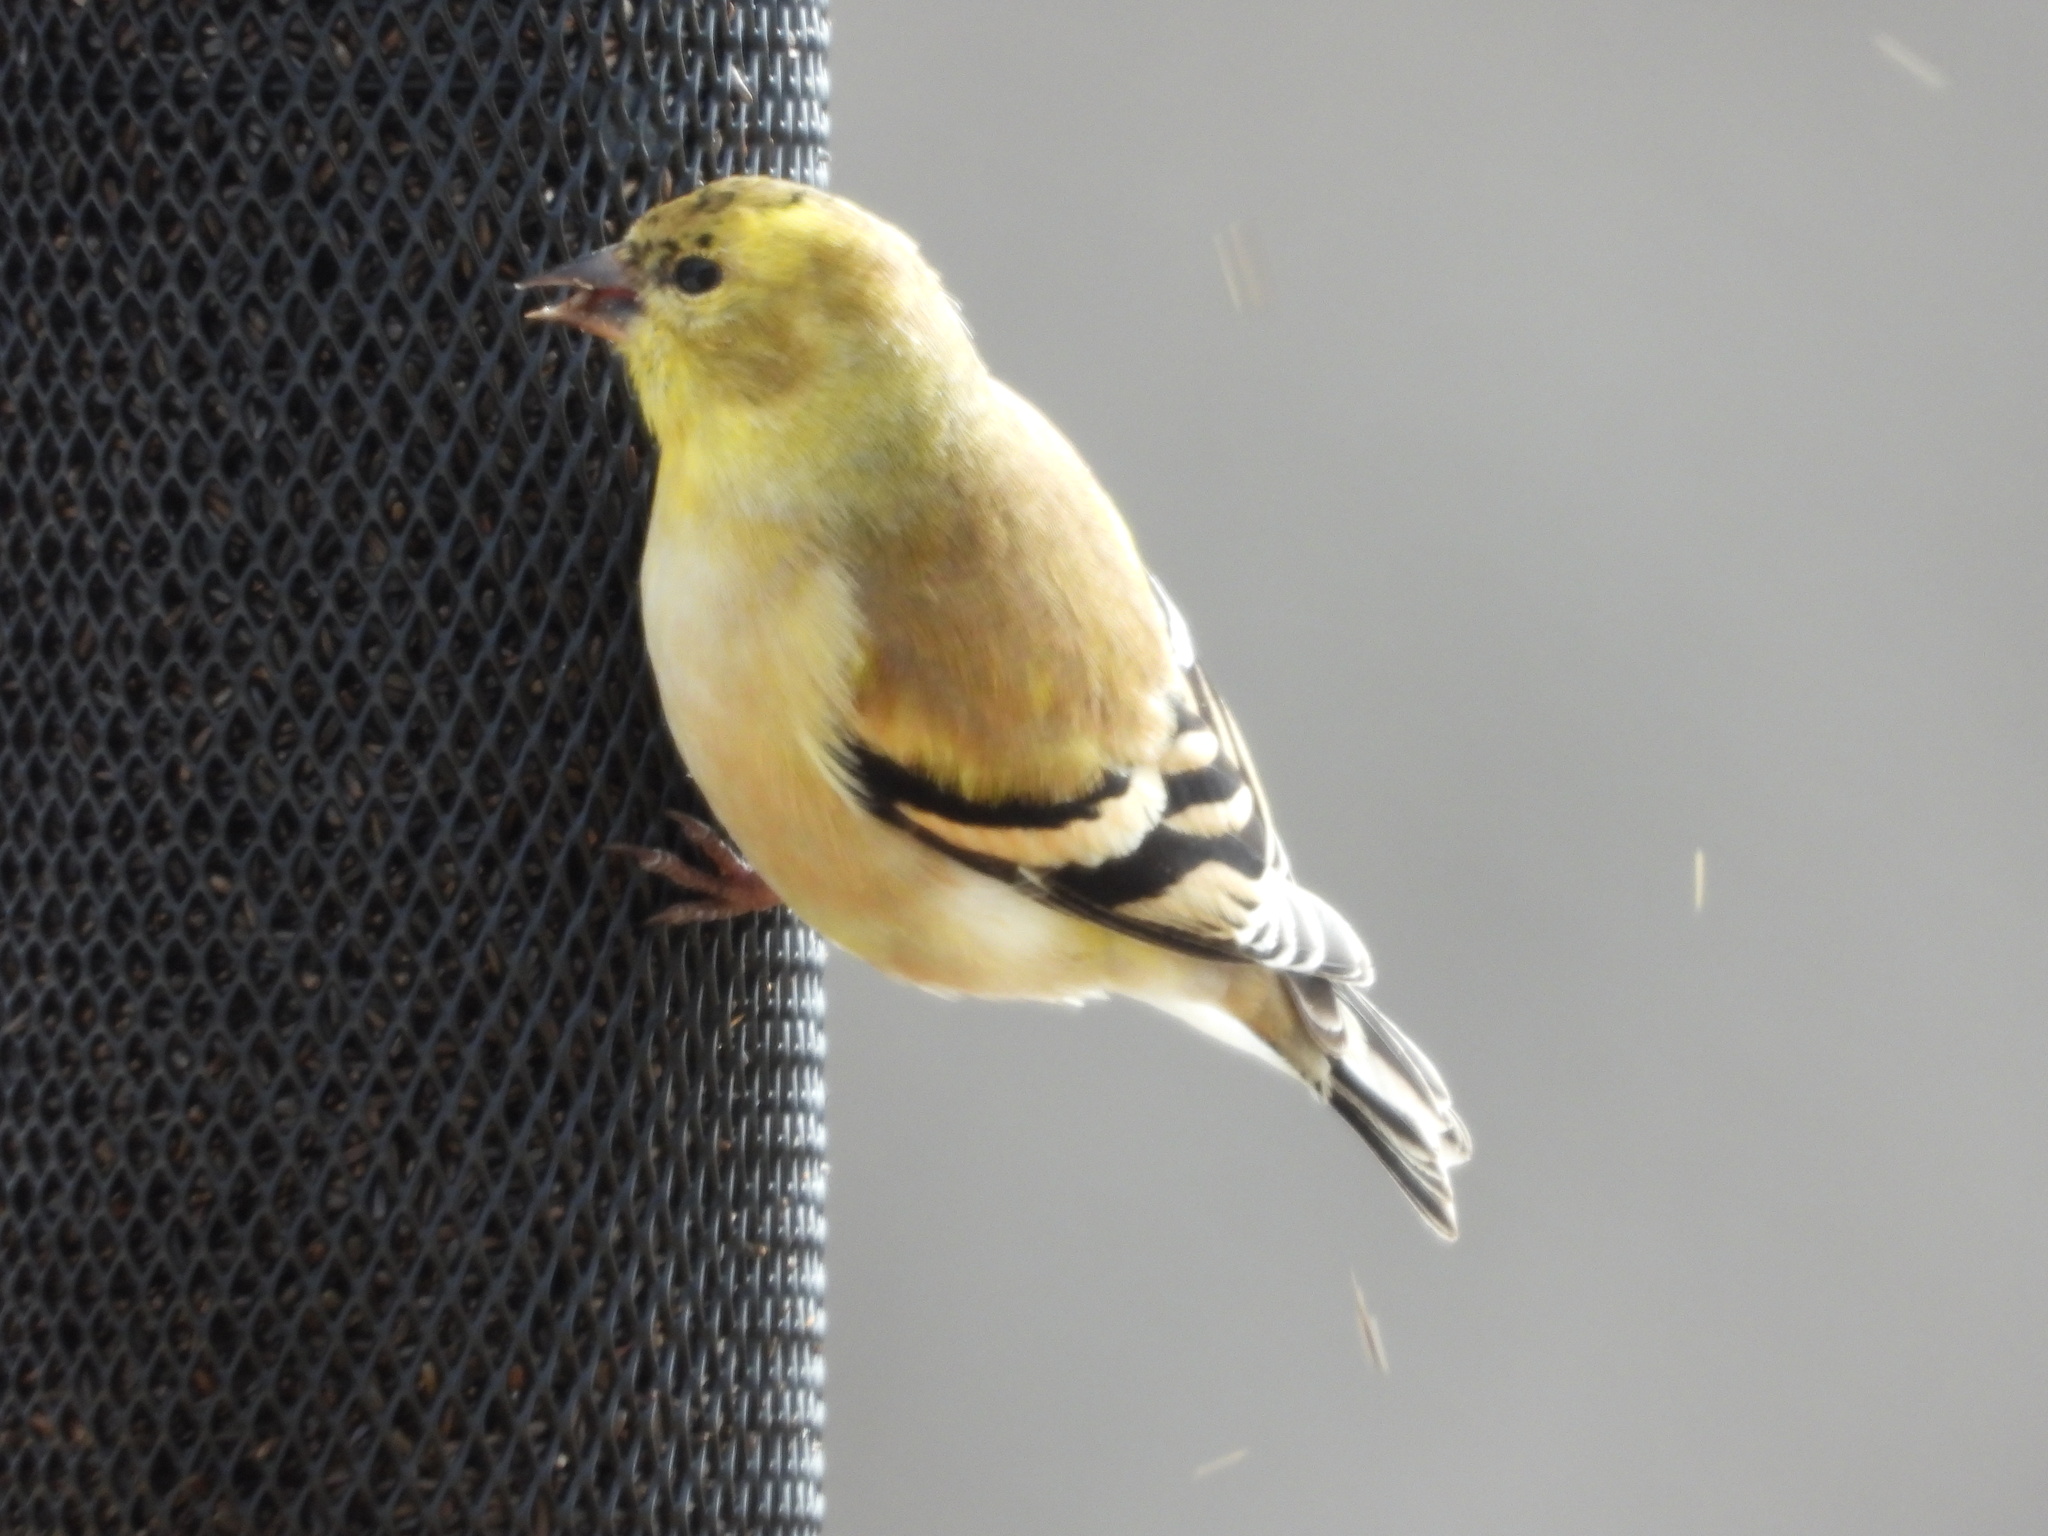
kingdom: Animalia
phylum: Chordata
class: Aves
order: Passeriformes
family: Fringillidae
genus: Spinus
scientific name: Spinus tristis
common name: American goldfinch
